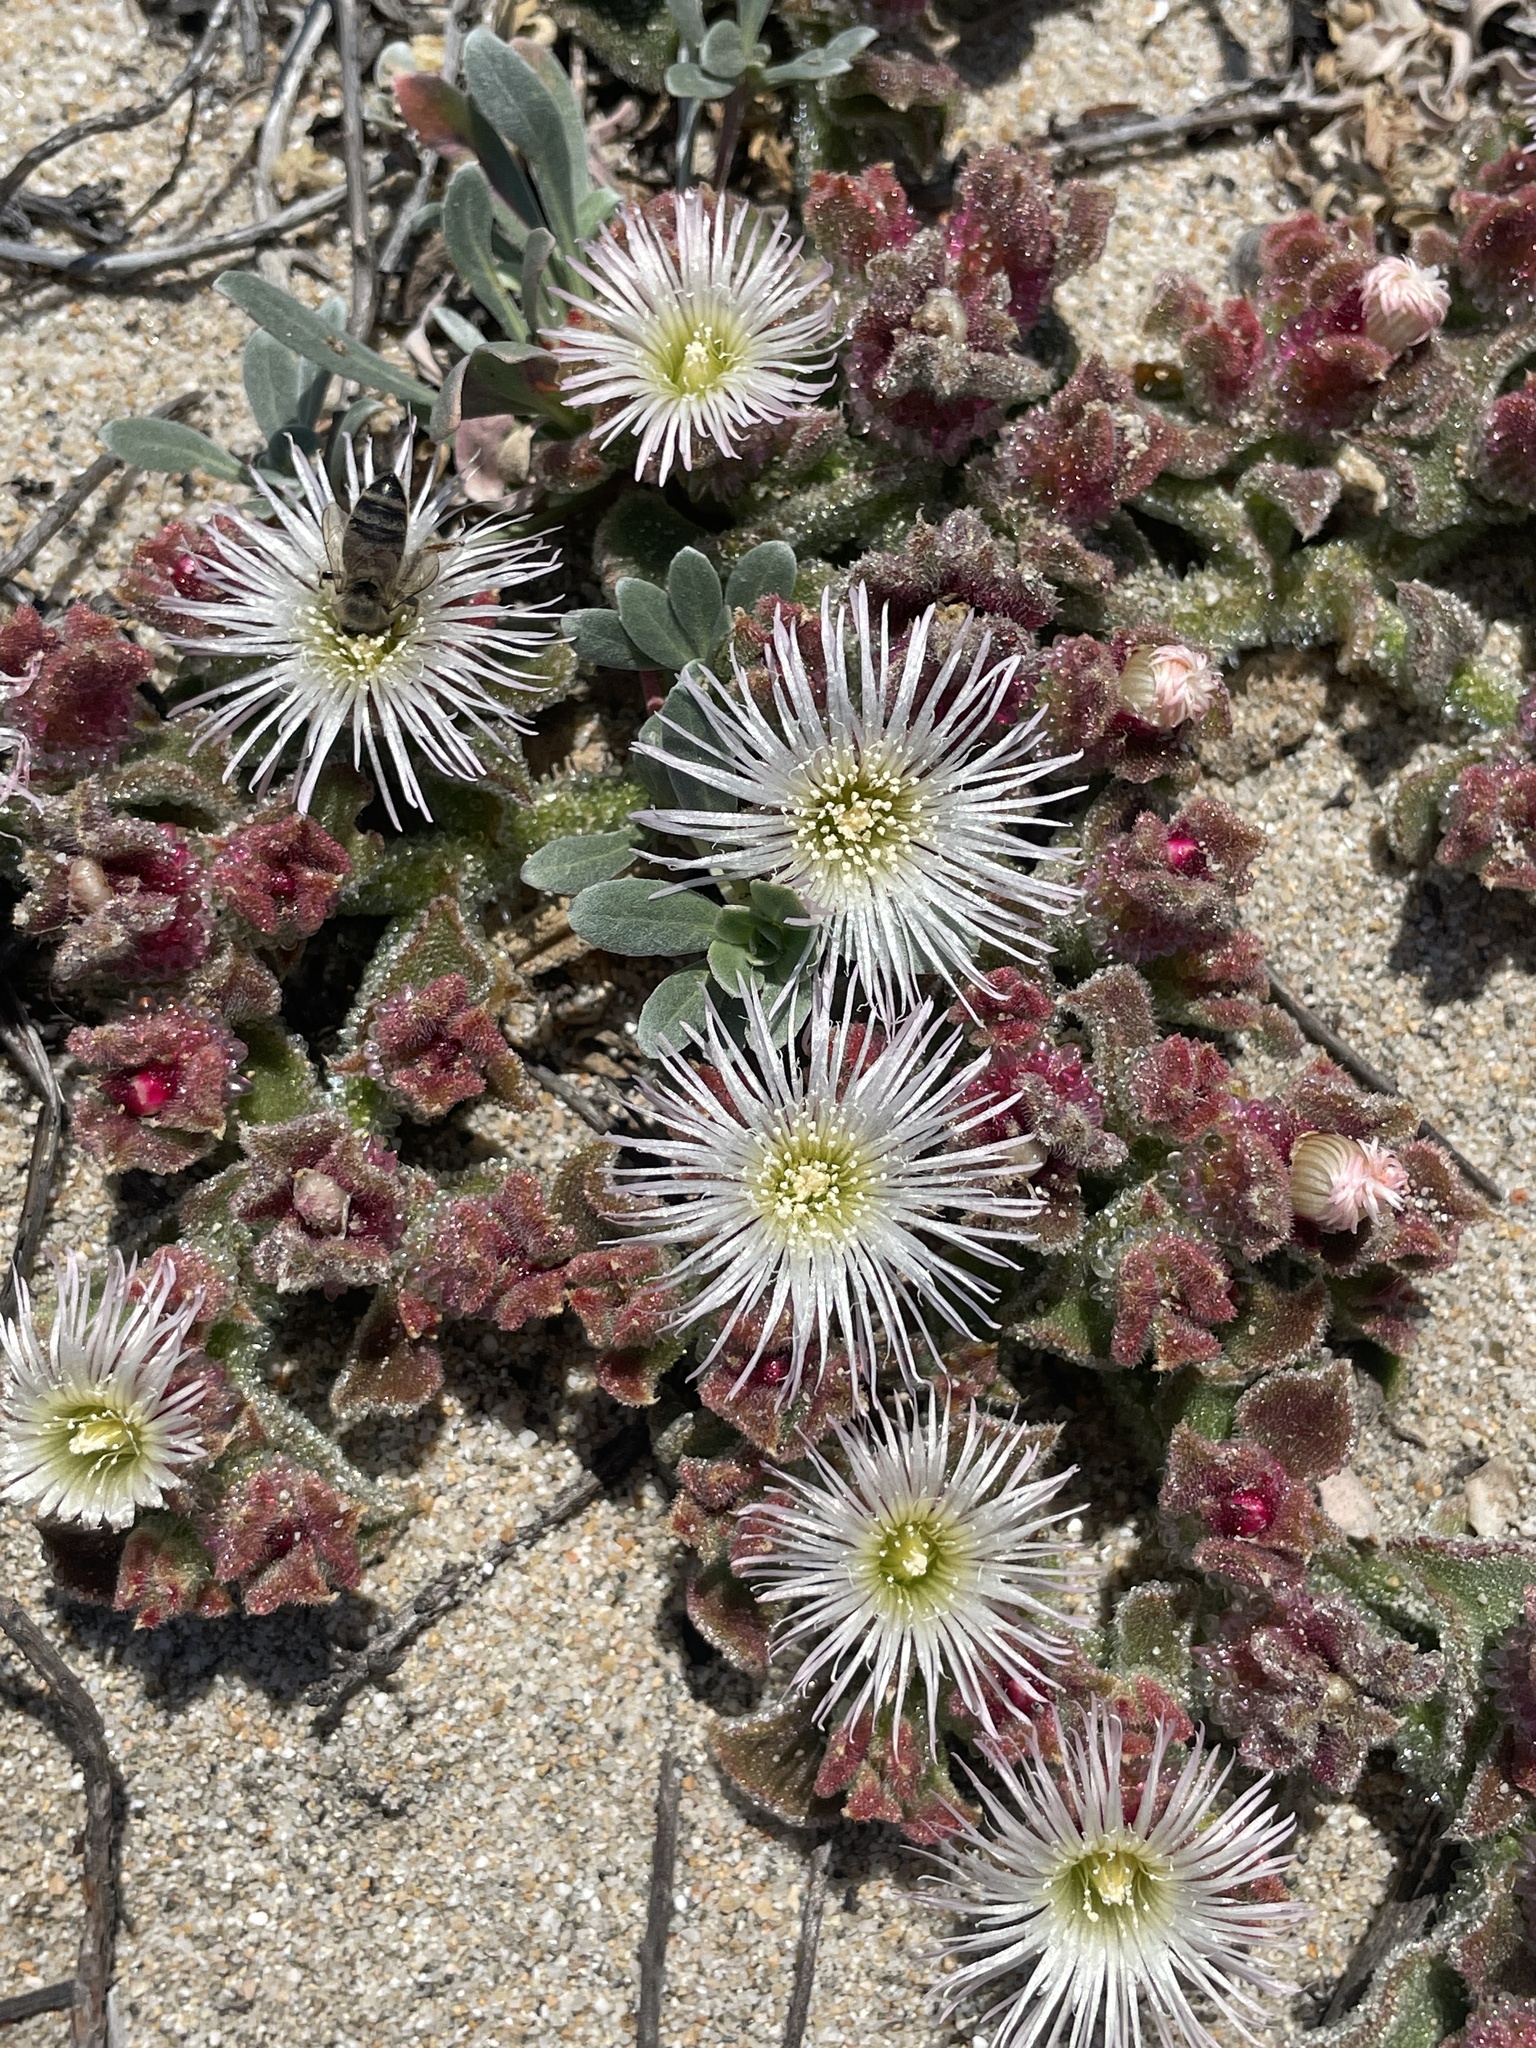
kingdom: Plantae
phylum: Tracheophyta
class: Magnoliopsida
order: Caryophyllales
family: Aizoaceae
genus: Mesembryanthemum
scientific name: Mesembryanthemum crystallinum
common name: Common iceplant
